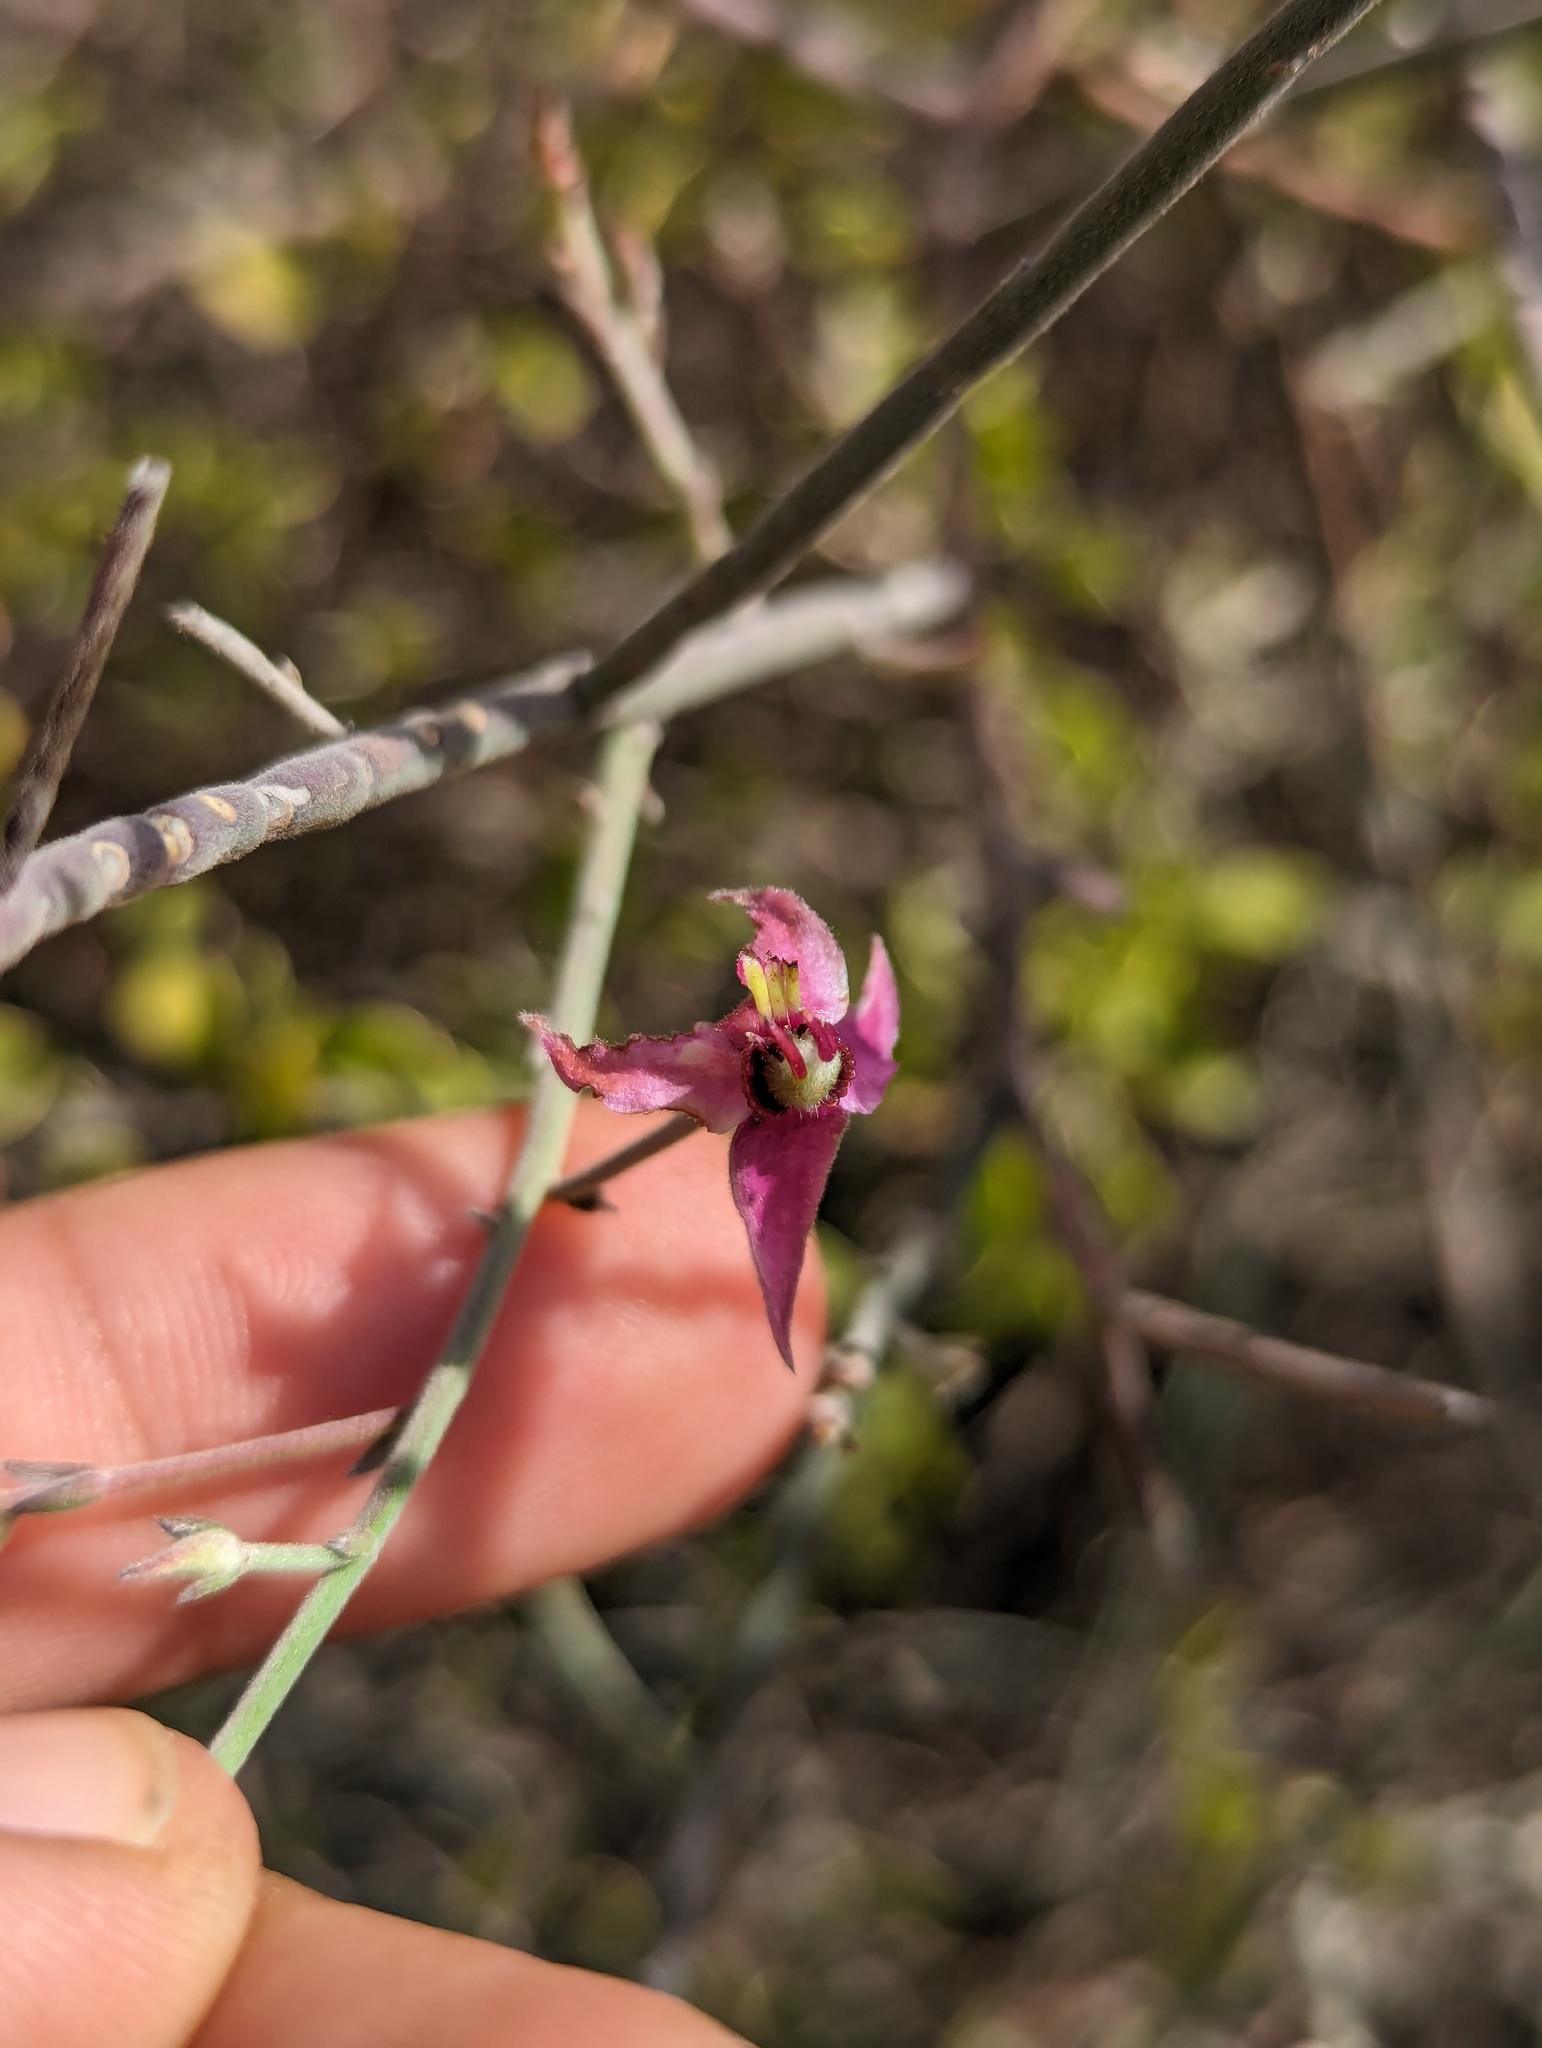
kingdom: Plantae
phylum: Tracheophyta
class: Magnoliopsida
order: Zygophyllales
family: Krameriaceae
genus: Krameria
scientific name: Krameria bicolor
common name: White ratany
